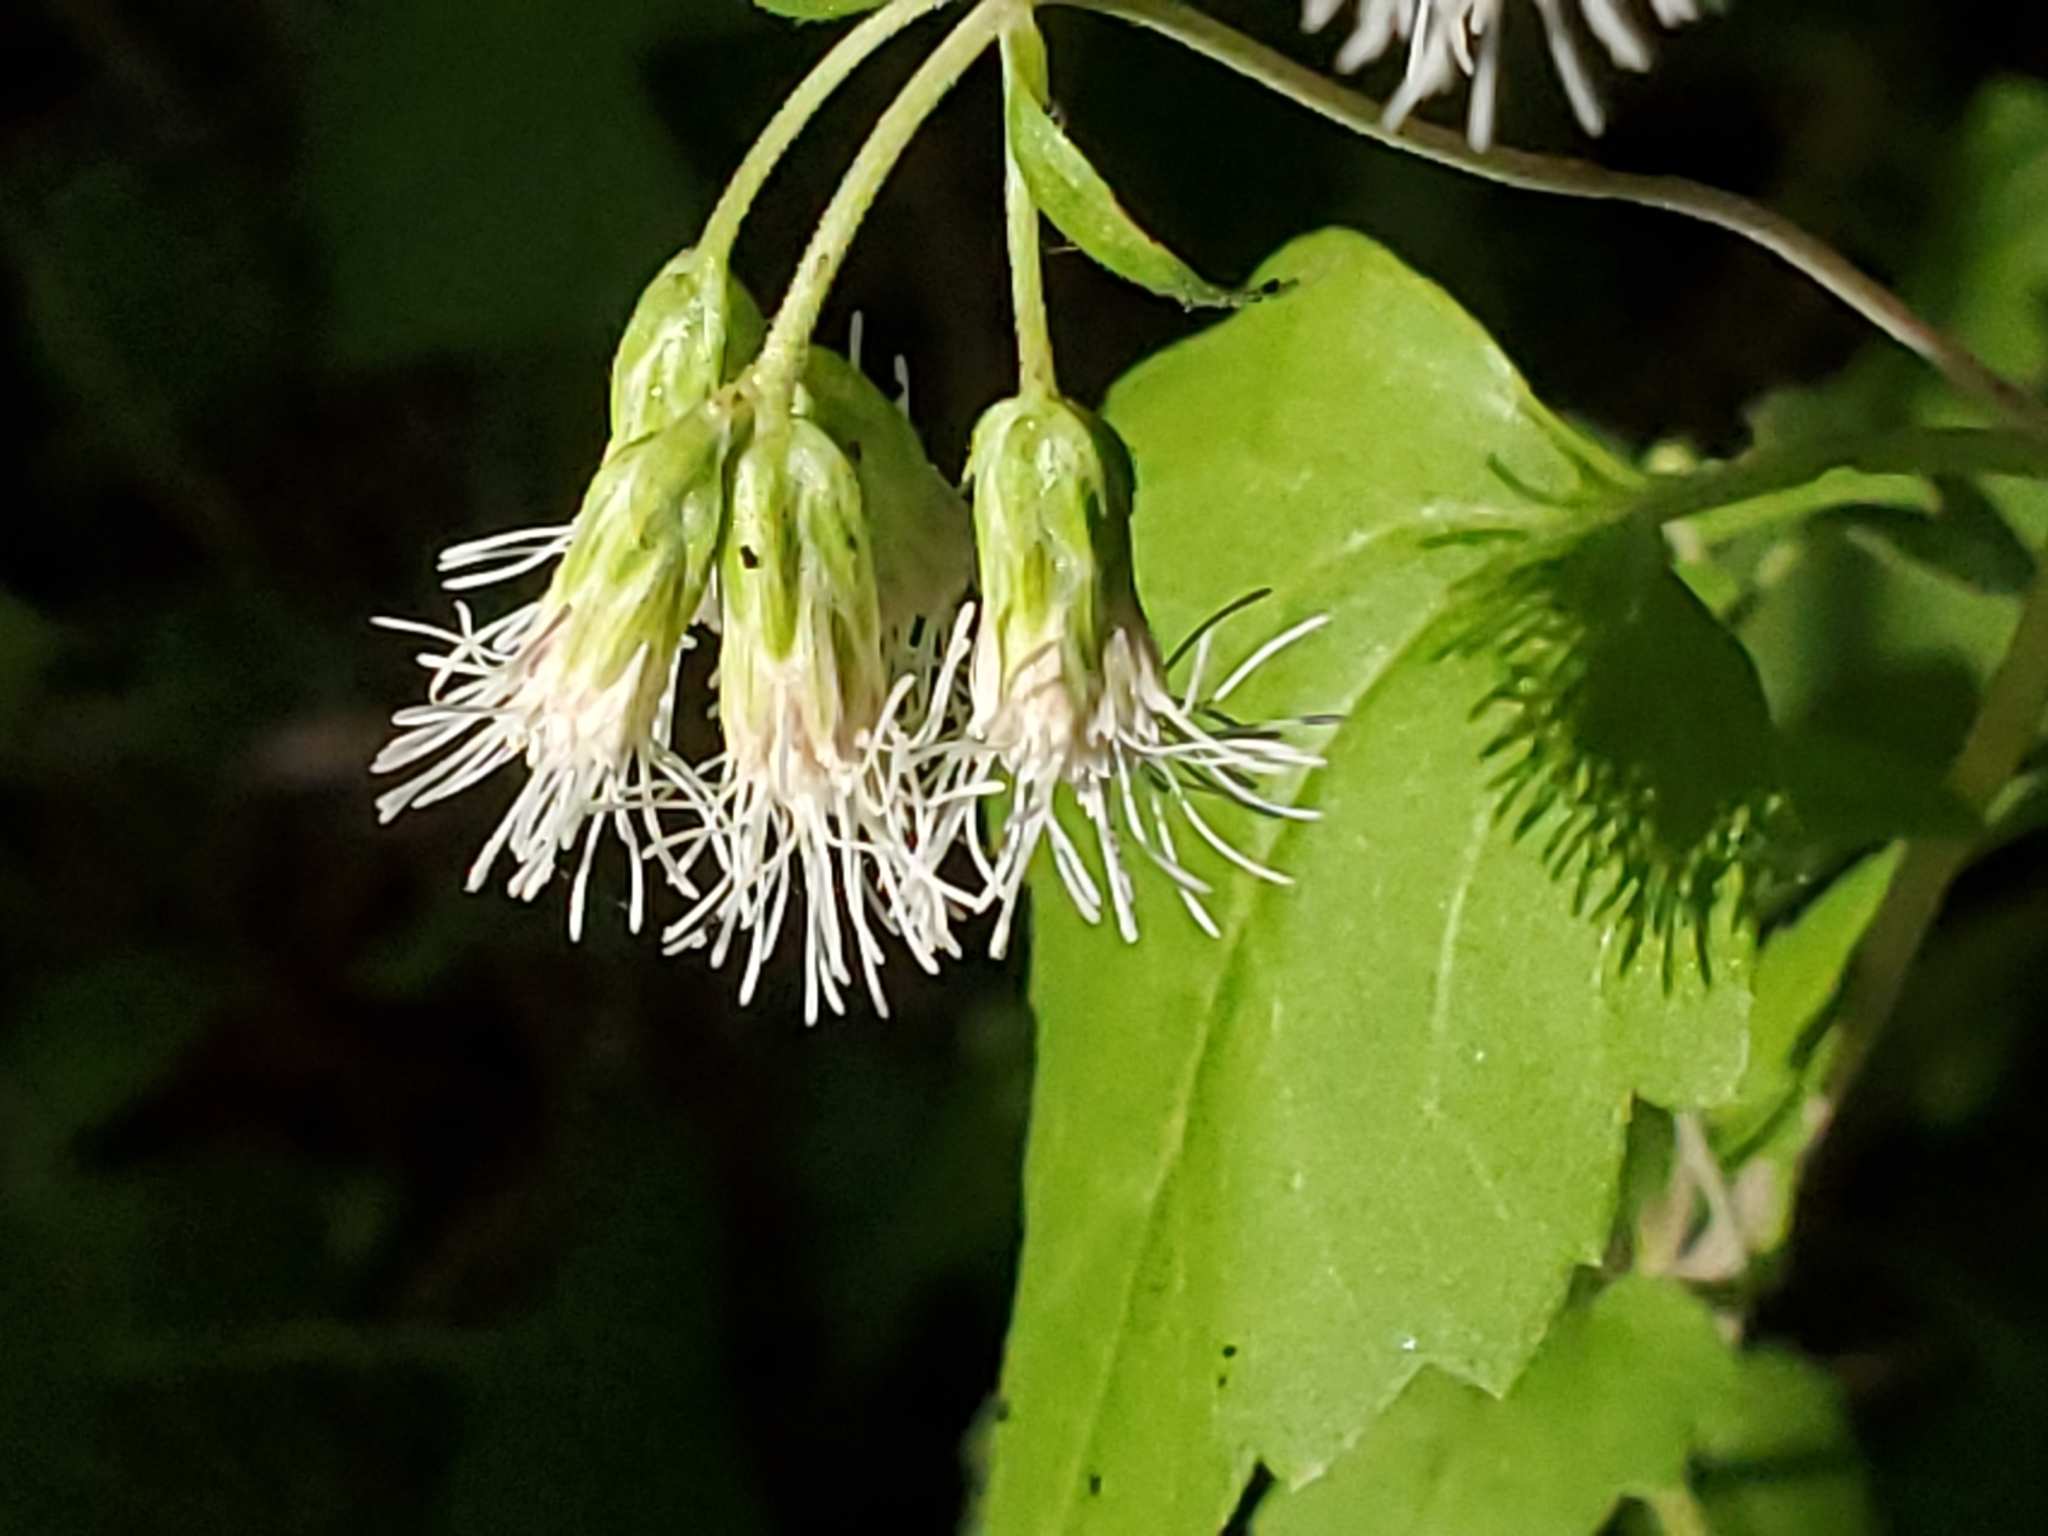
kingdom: Plantae
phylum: Tracheophyta
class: Magnoliopsida
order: Asterales
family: Asteraceae
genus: Brickelliastrum
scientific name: Brickelliastrum fendleri
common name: Fendler's-brickellbush
